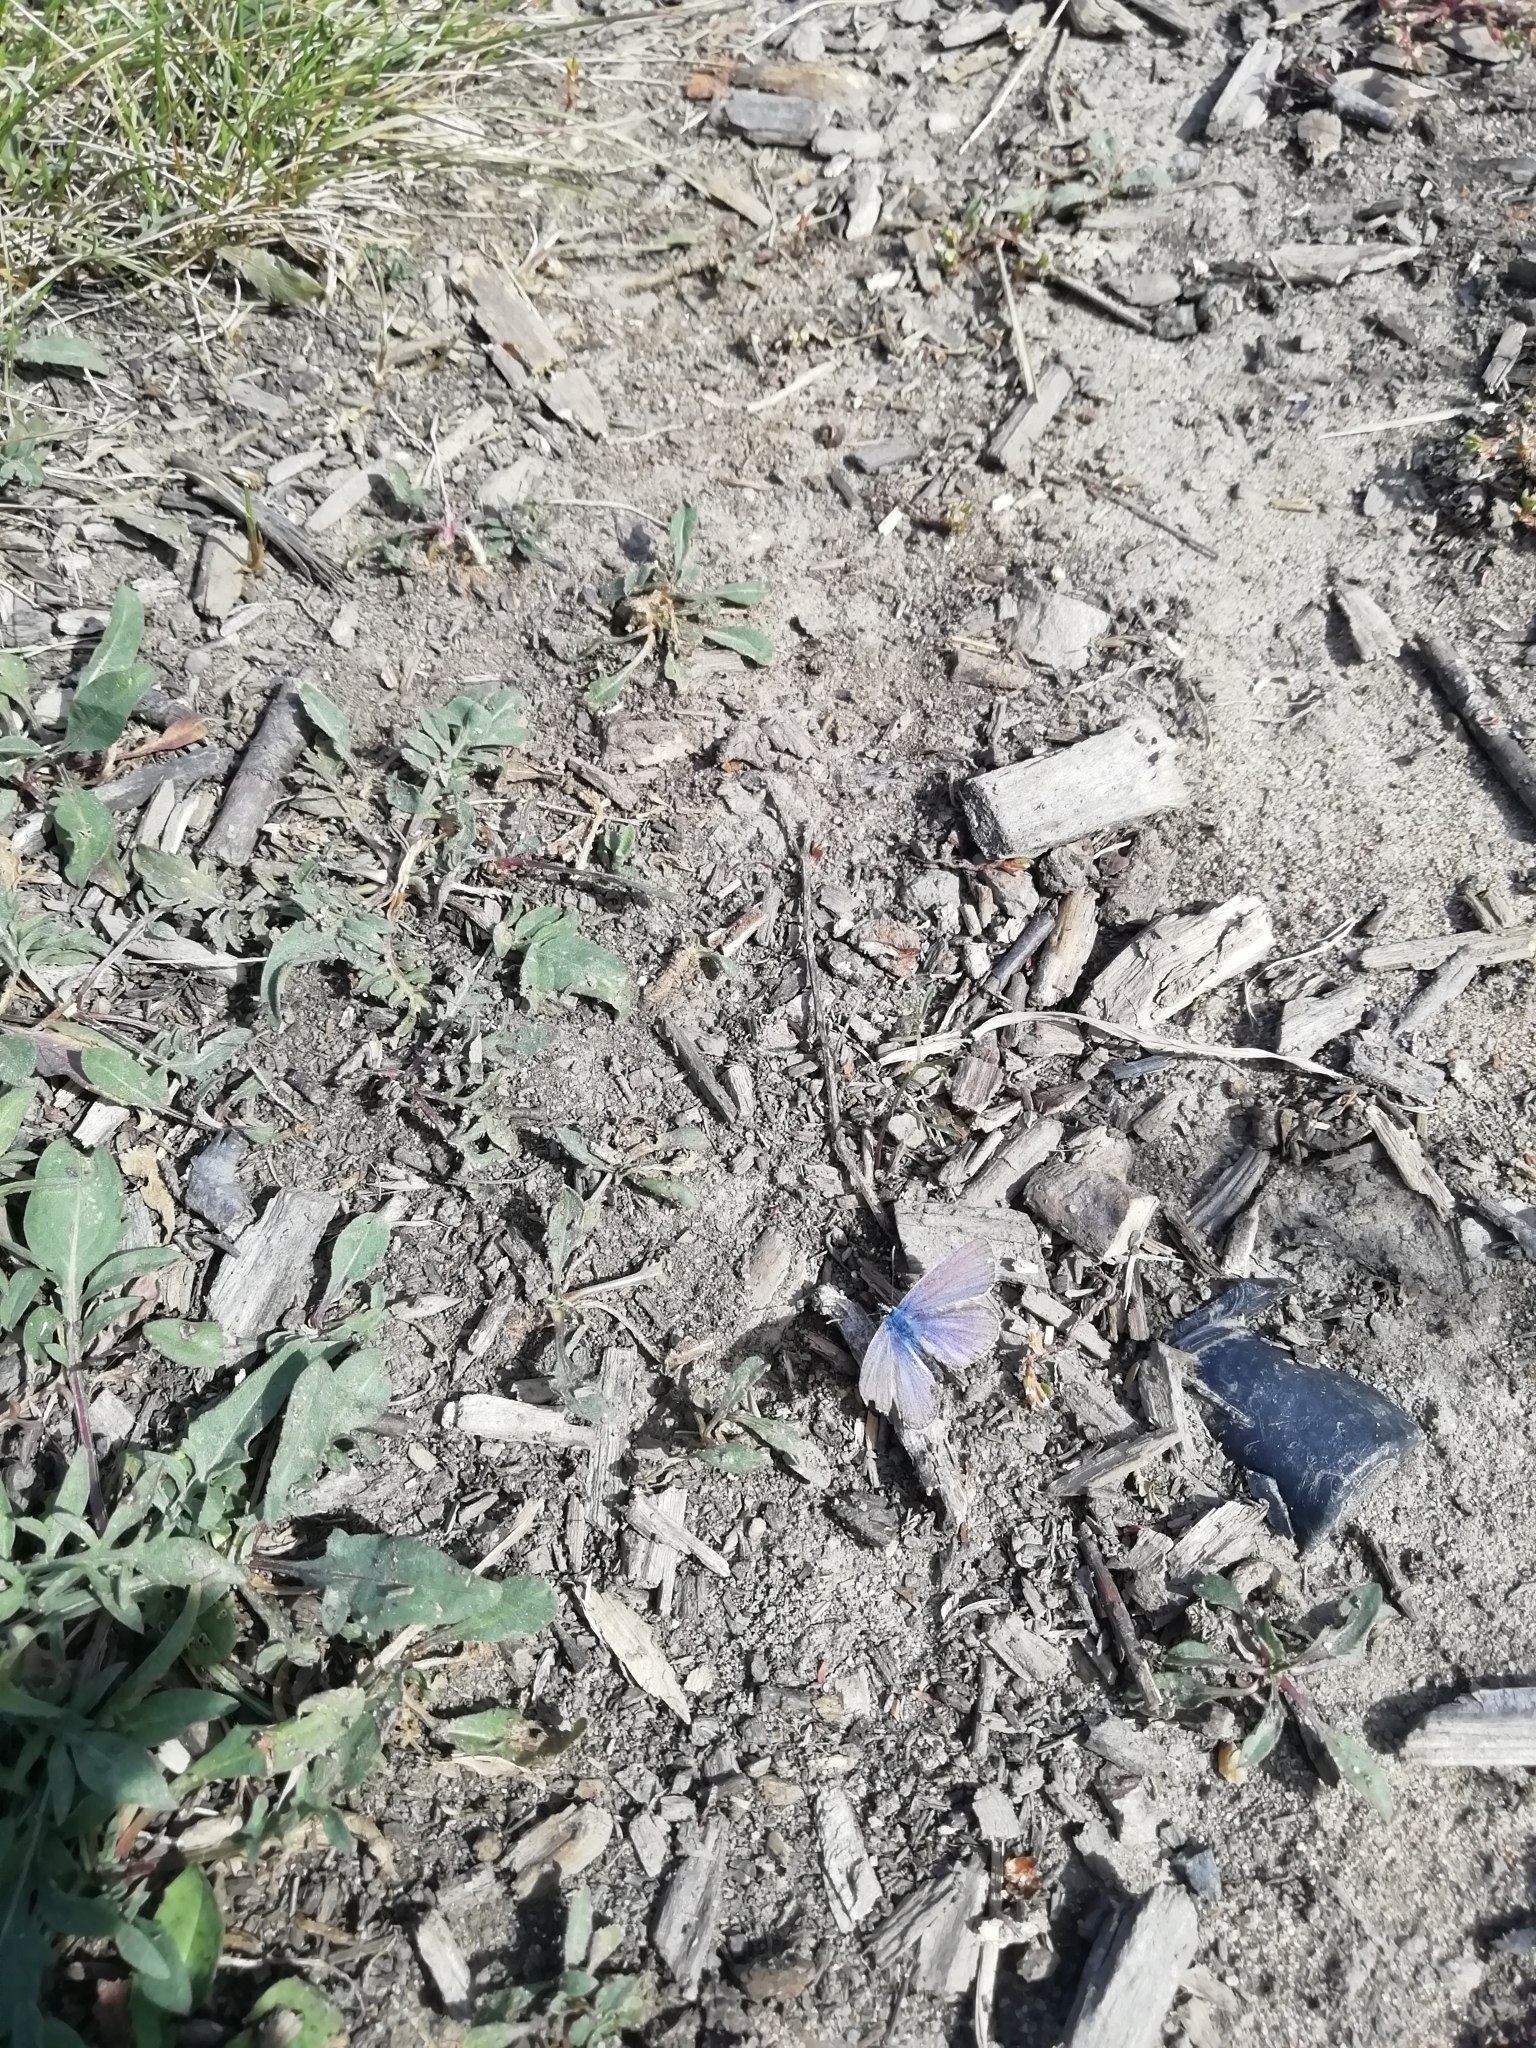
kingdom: Animalia
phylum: Arthropoda
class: Insecta
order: Lepidoptera
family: Lycaenidae
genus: Polyommatus
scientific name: Polyommatus icarus
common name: Common blue
